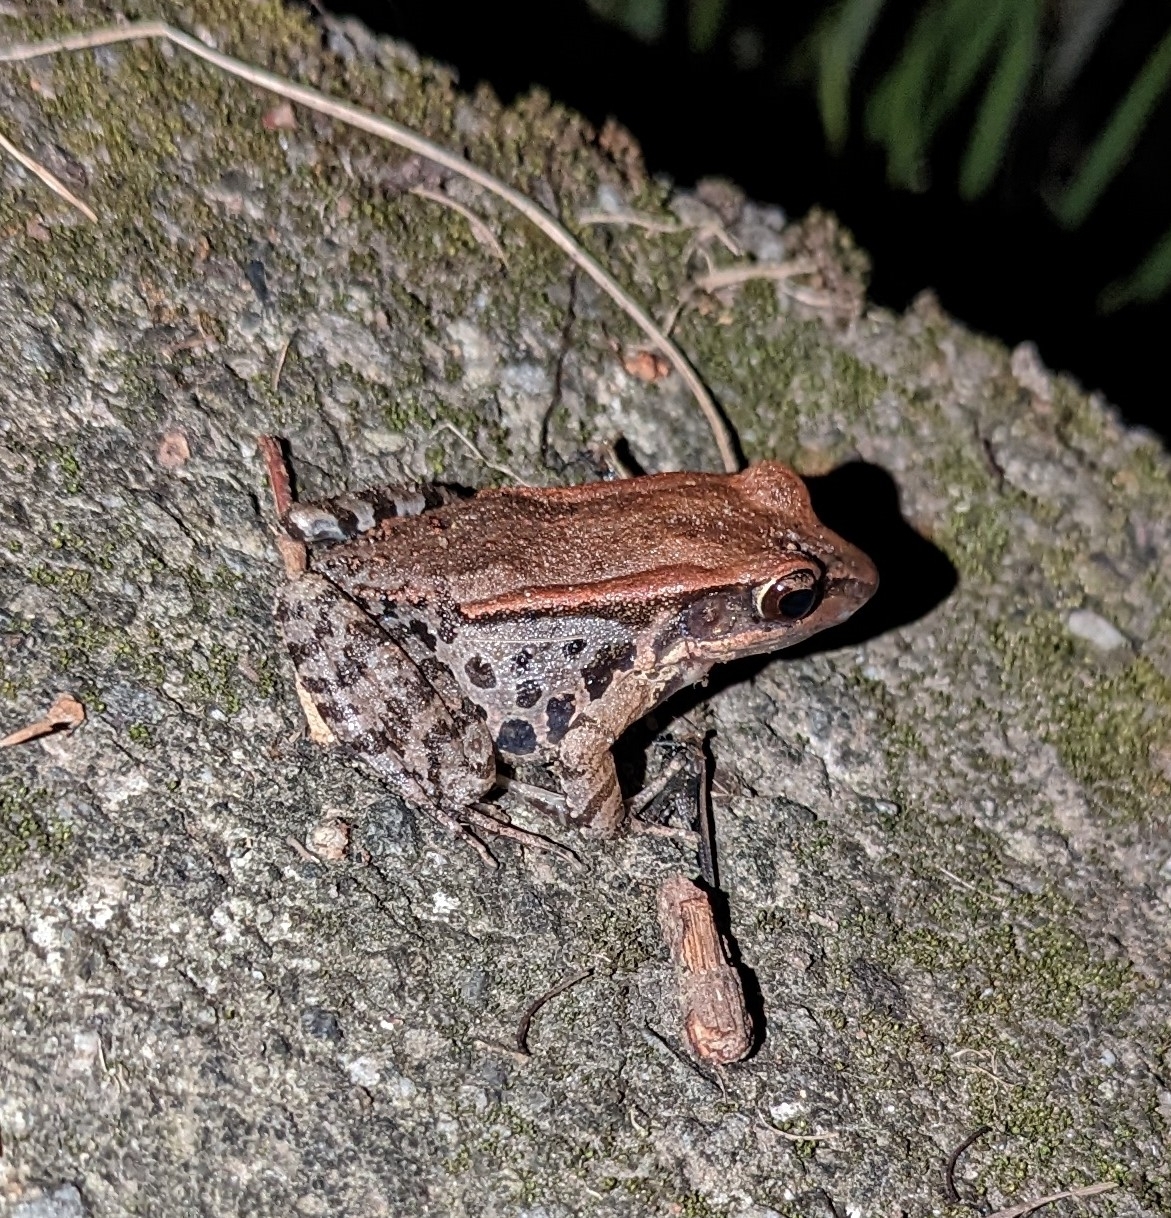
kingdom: Animalia
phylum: Chordata
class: Amphibia
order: Anura
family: Ranidae
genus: Hylarana
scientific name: Hylarana latouchii
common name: Broad-folded frog
